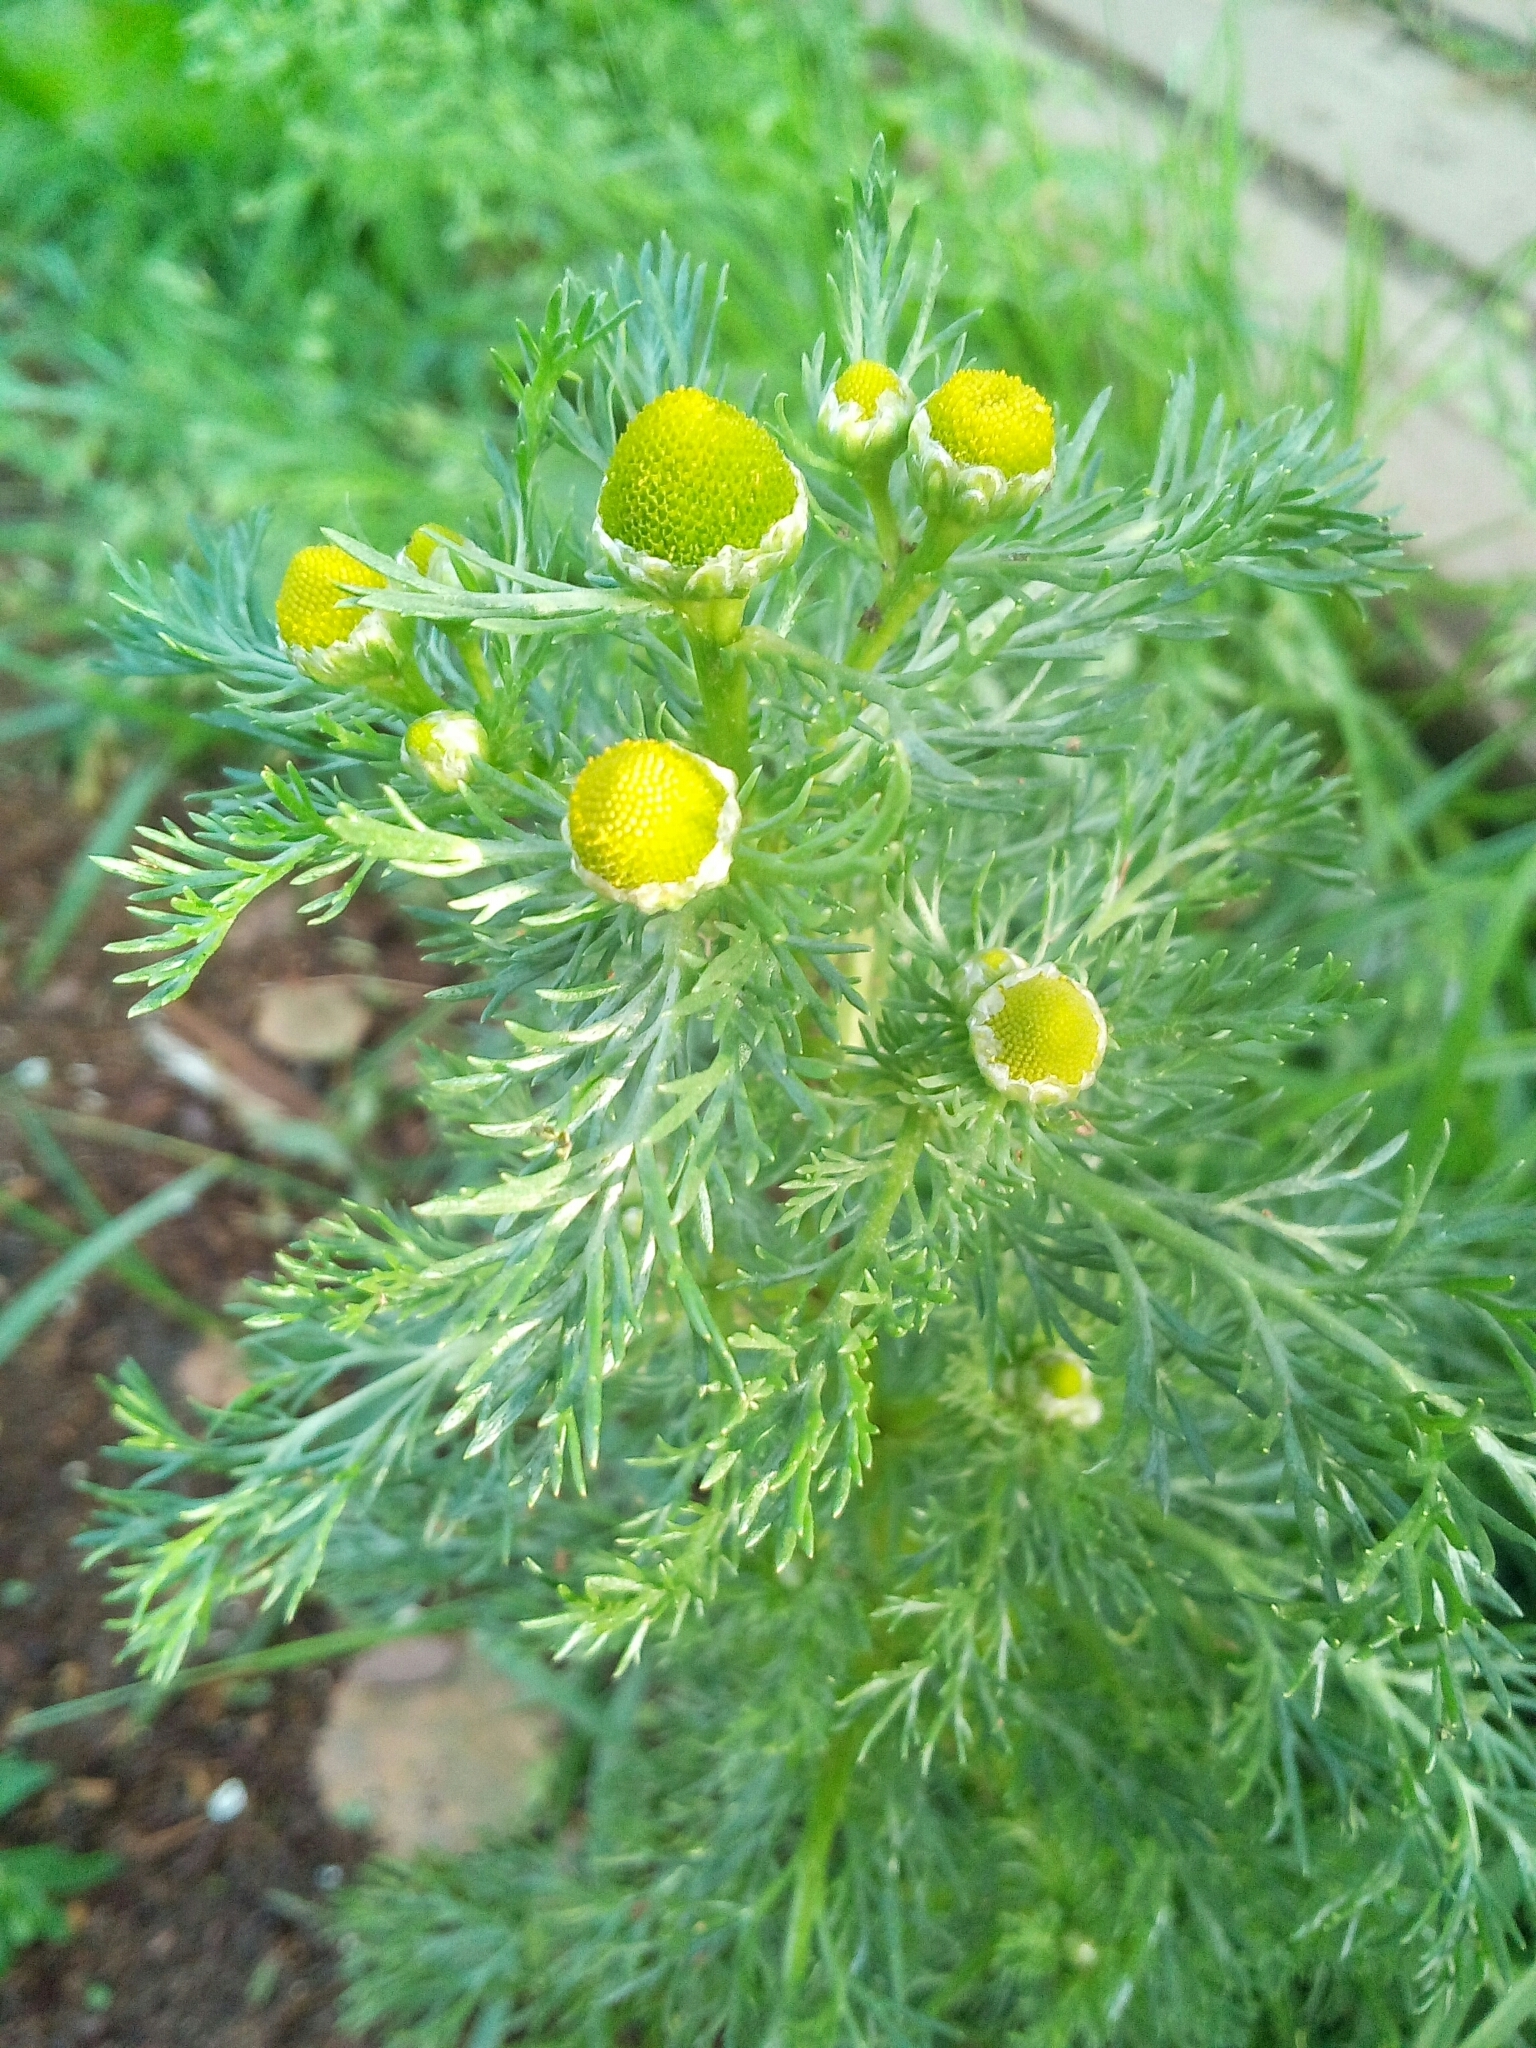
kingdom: Plantae
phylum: Tracheophyta
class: Magnoliopsida
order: Asterales
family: Asteraceae
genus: Matricaria
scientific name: Matricaria discoidea
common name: Disc mayweed
